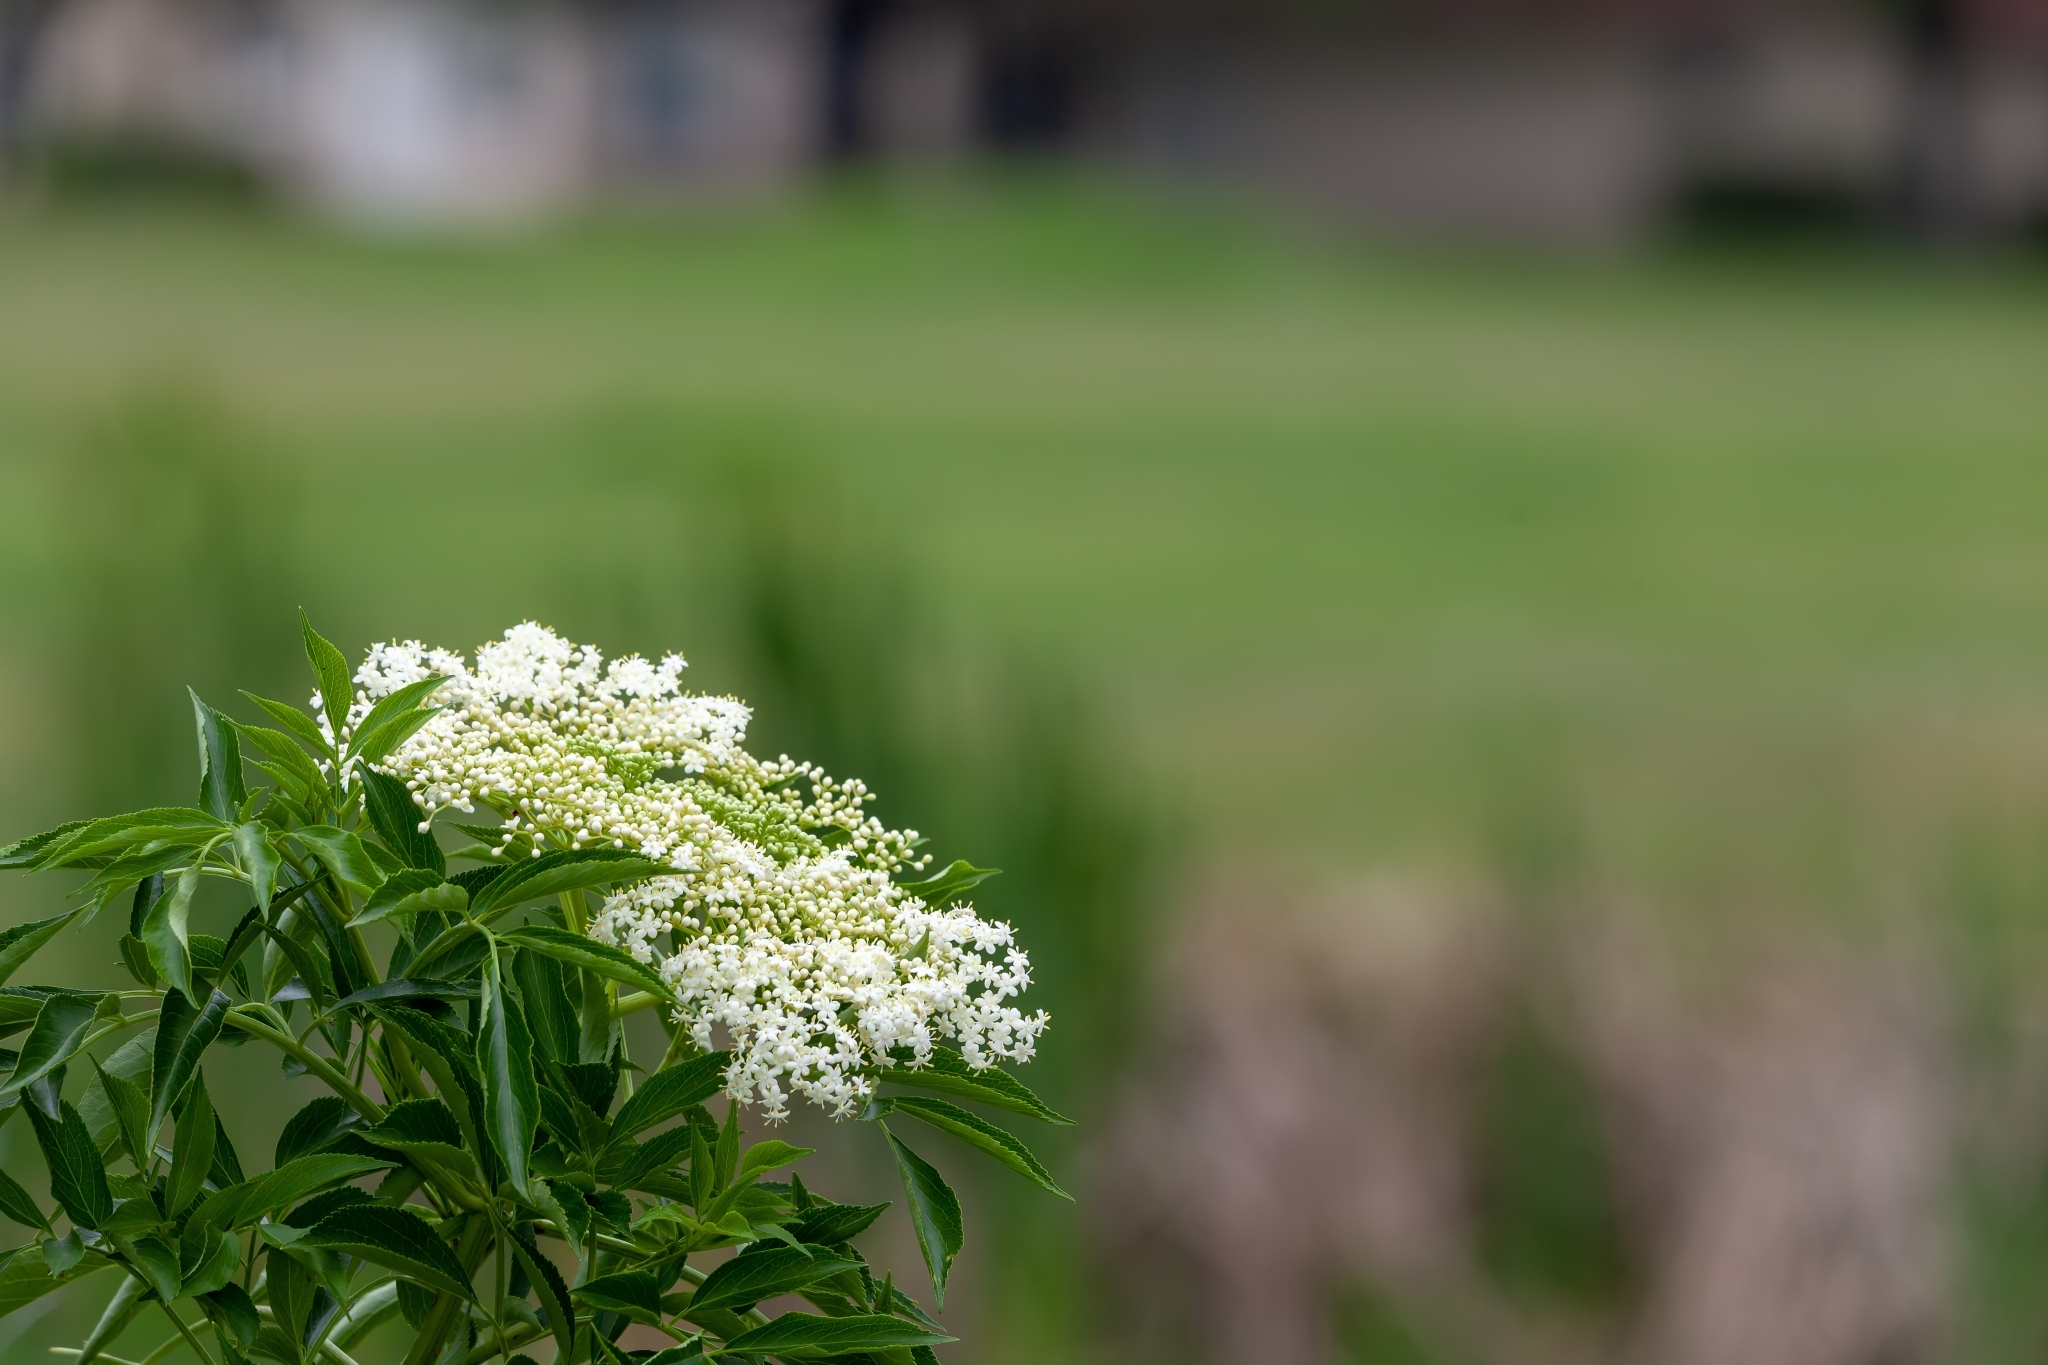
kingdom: Plantae
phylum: Tracheophyta
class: Magnoliopsida
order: Dipsacales
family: Viburnaceae
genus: Sambucus
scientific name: Sambucus canadensis
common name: American elder
